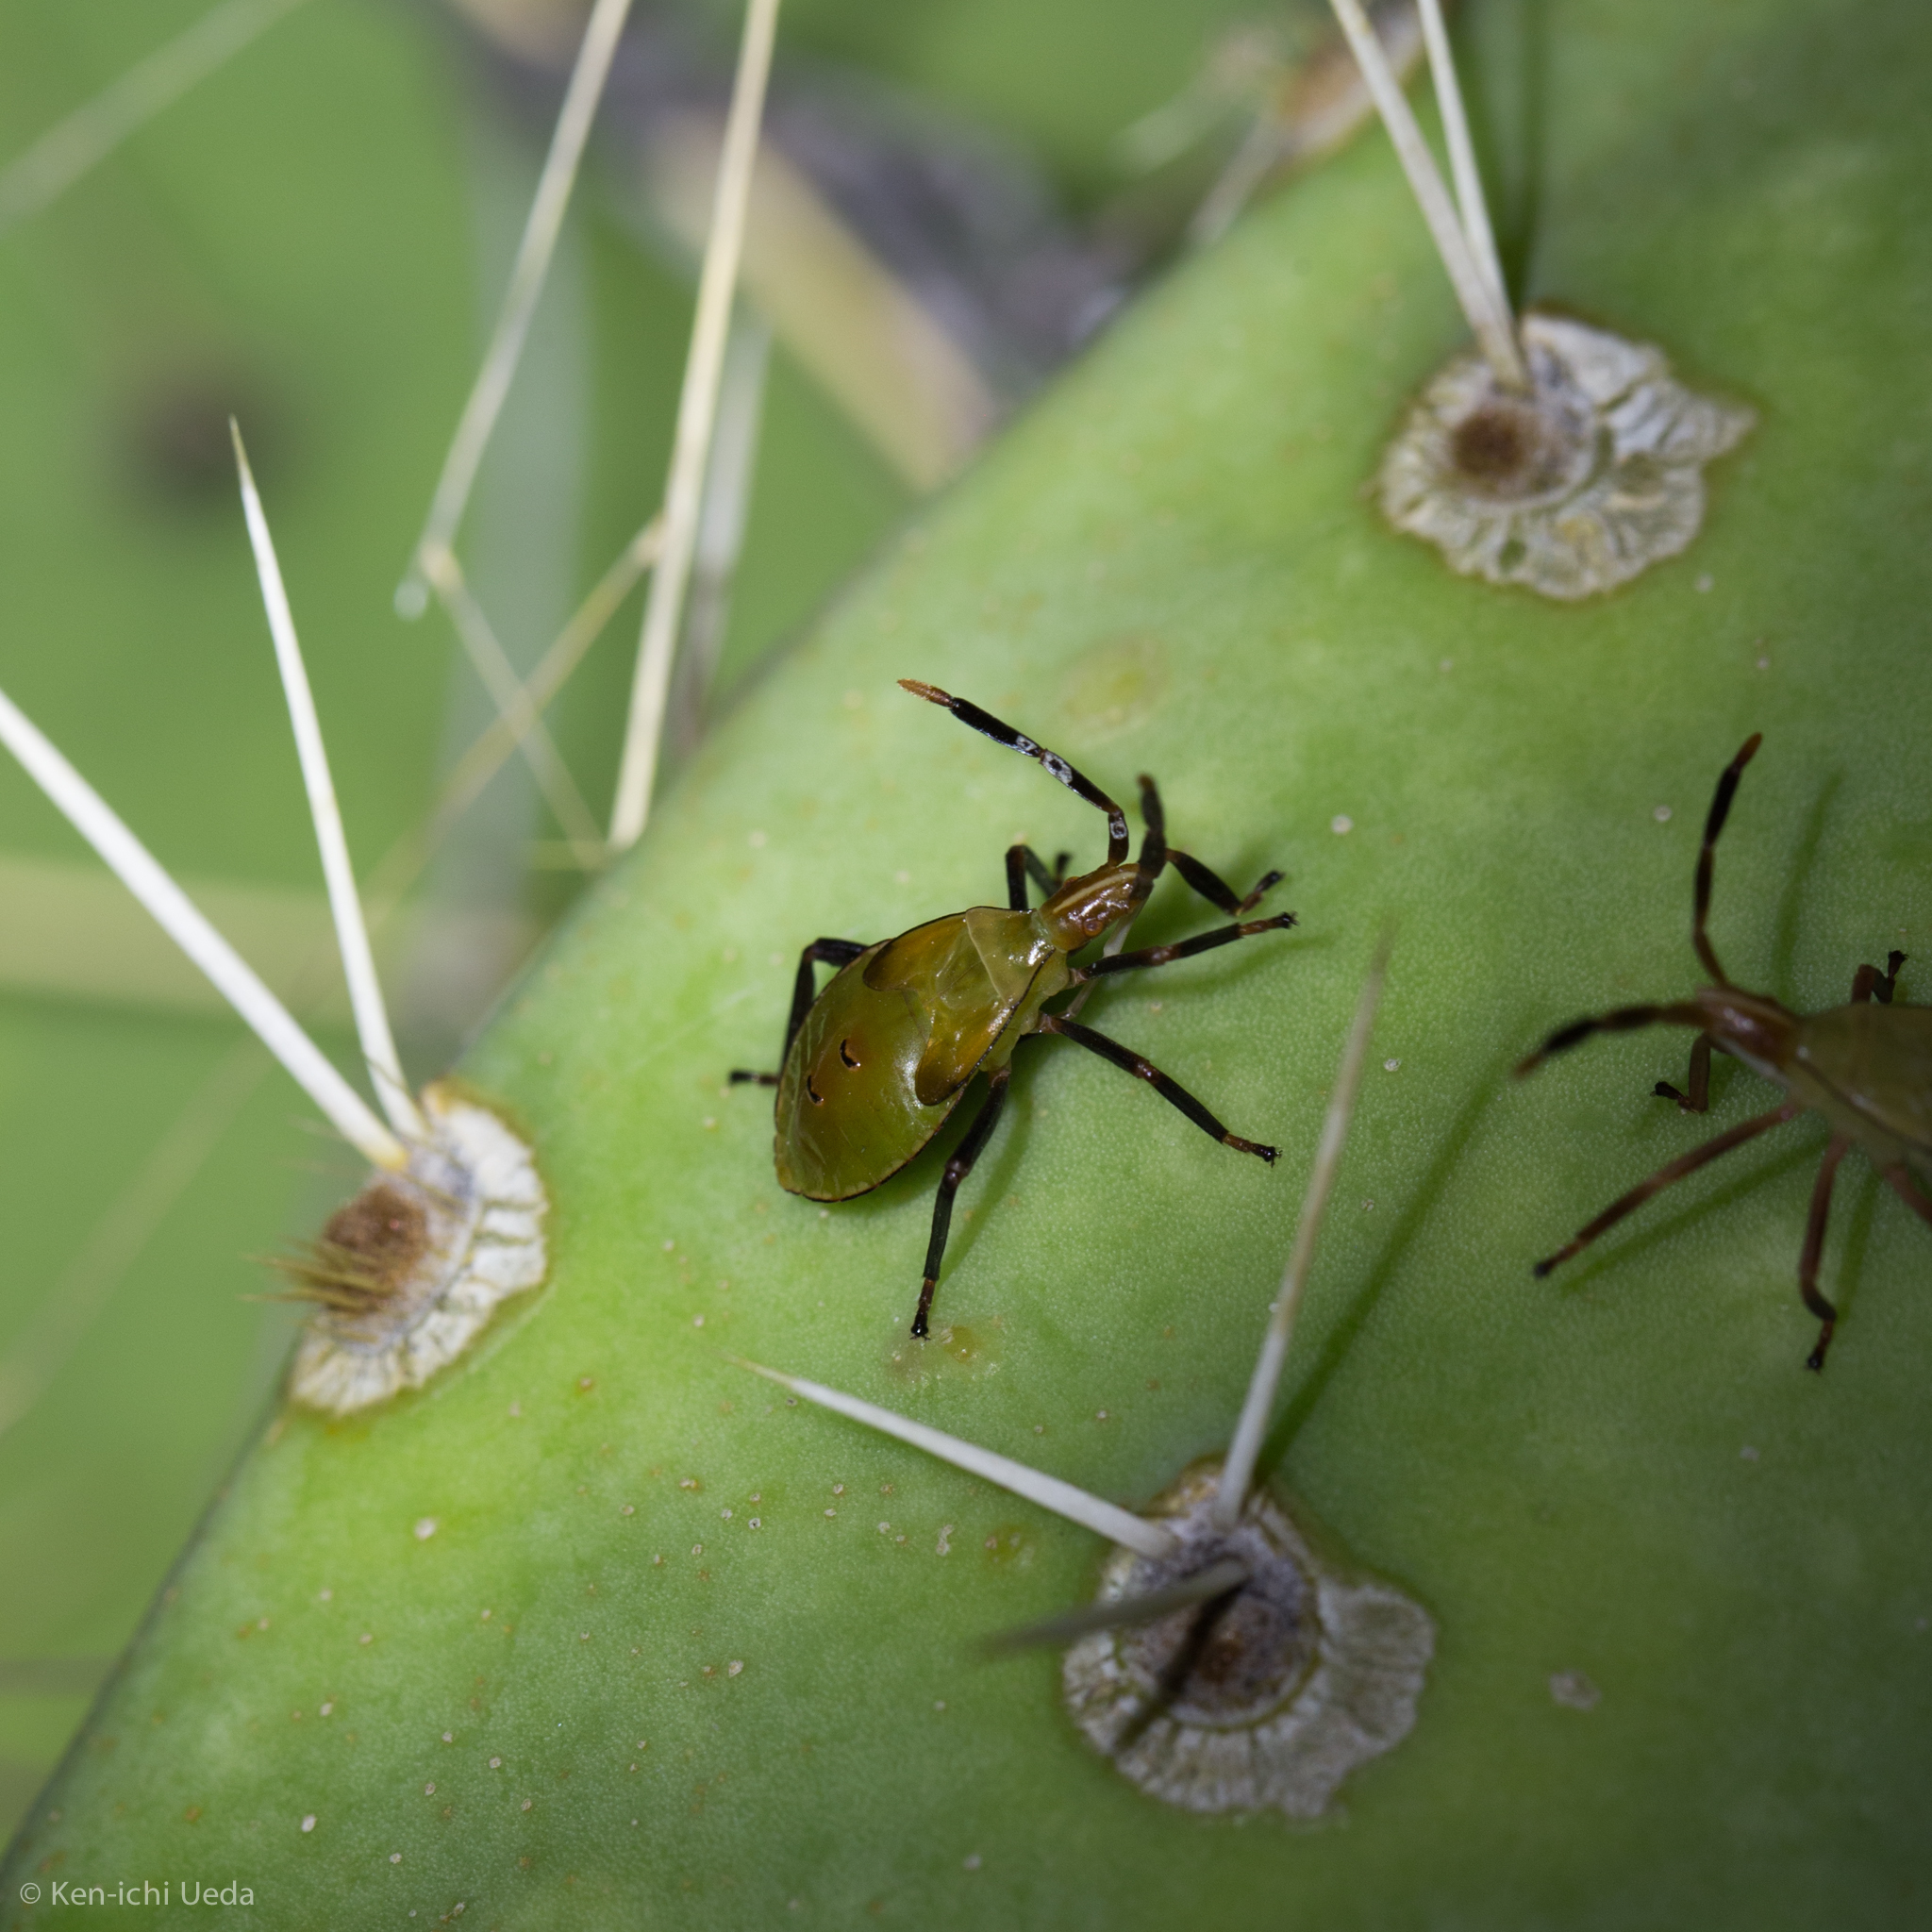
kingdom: Animalia
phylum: Arthropoda
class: Insecta
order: Hemiptera
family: Coreidae
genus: Chelinidea
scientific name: Chelinidea vittiger
